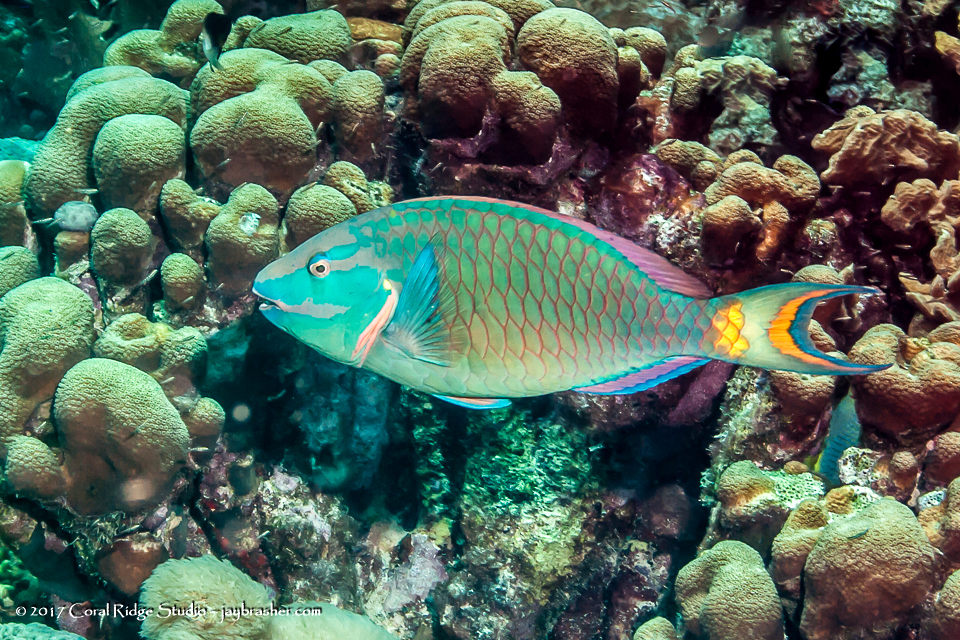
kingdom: Animalia
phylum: Chordata
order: Perciformes
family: Scaridae
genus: Sparisoma
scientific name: Sparisoma viride
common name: Stoplight parrotfish
